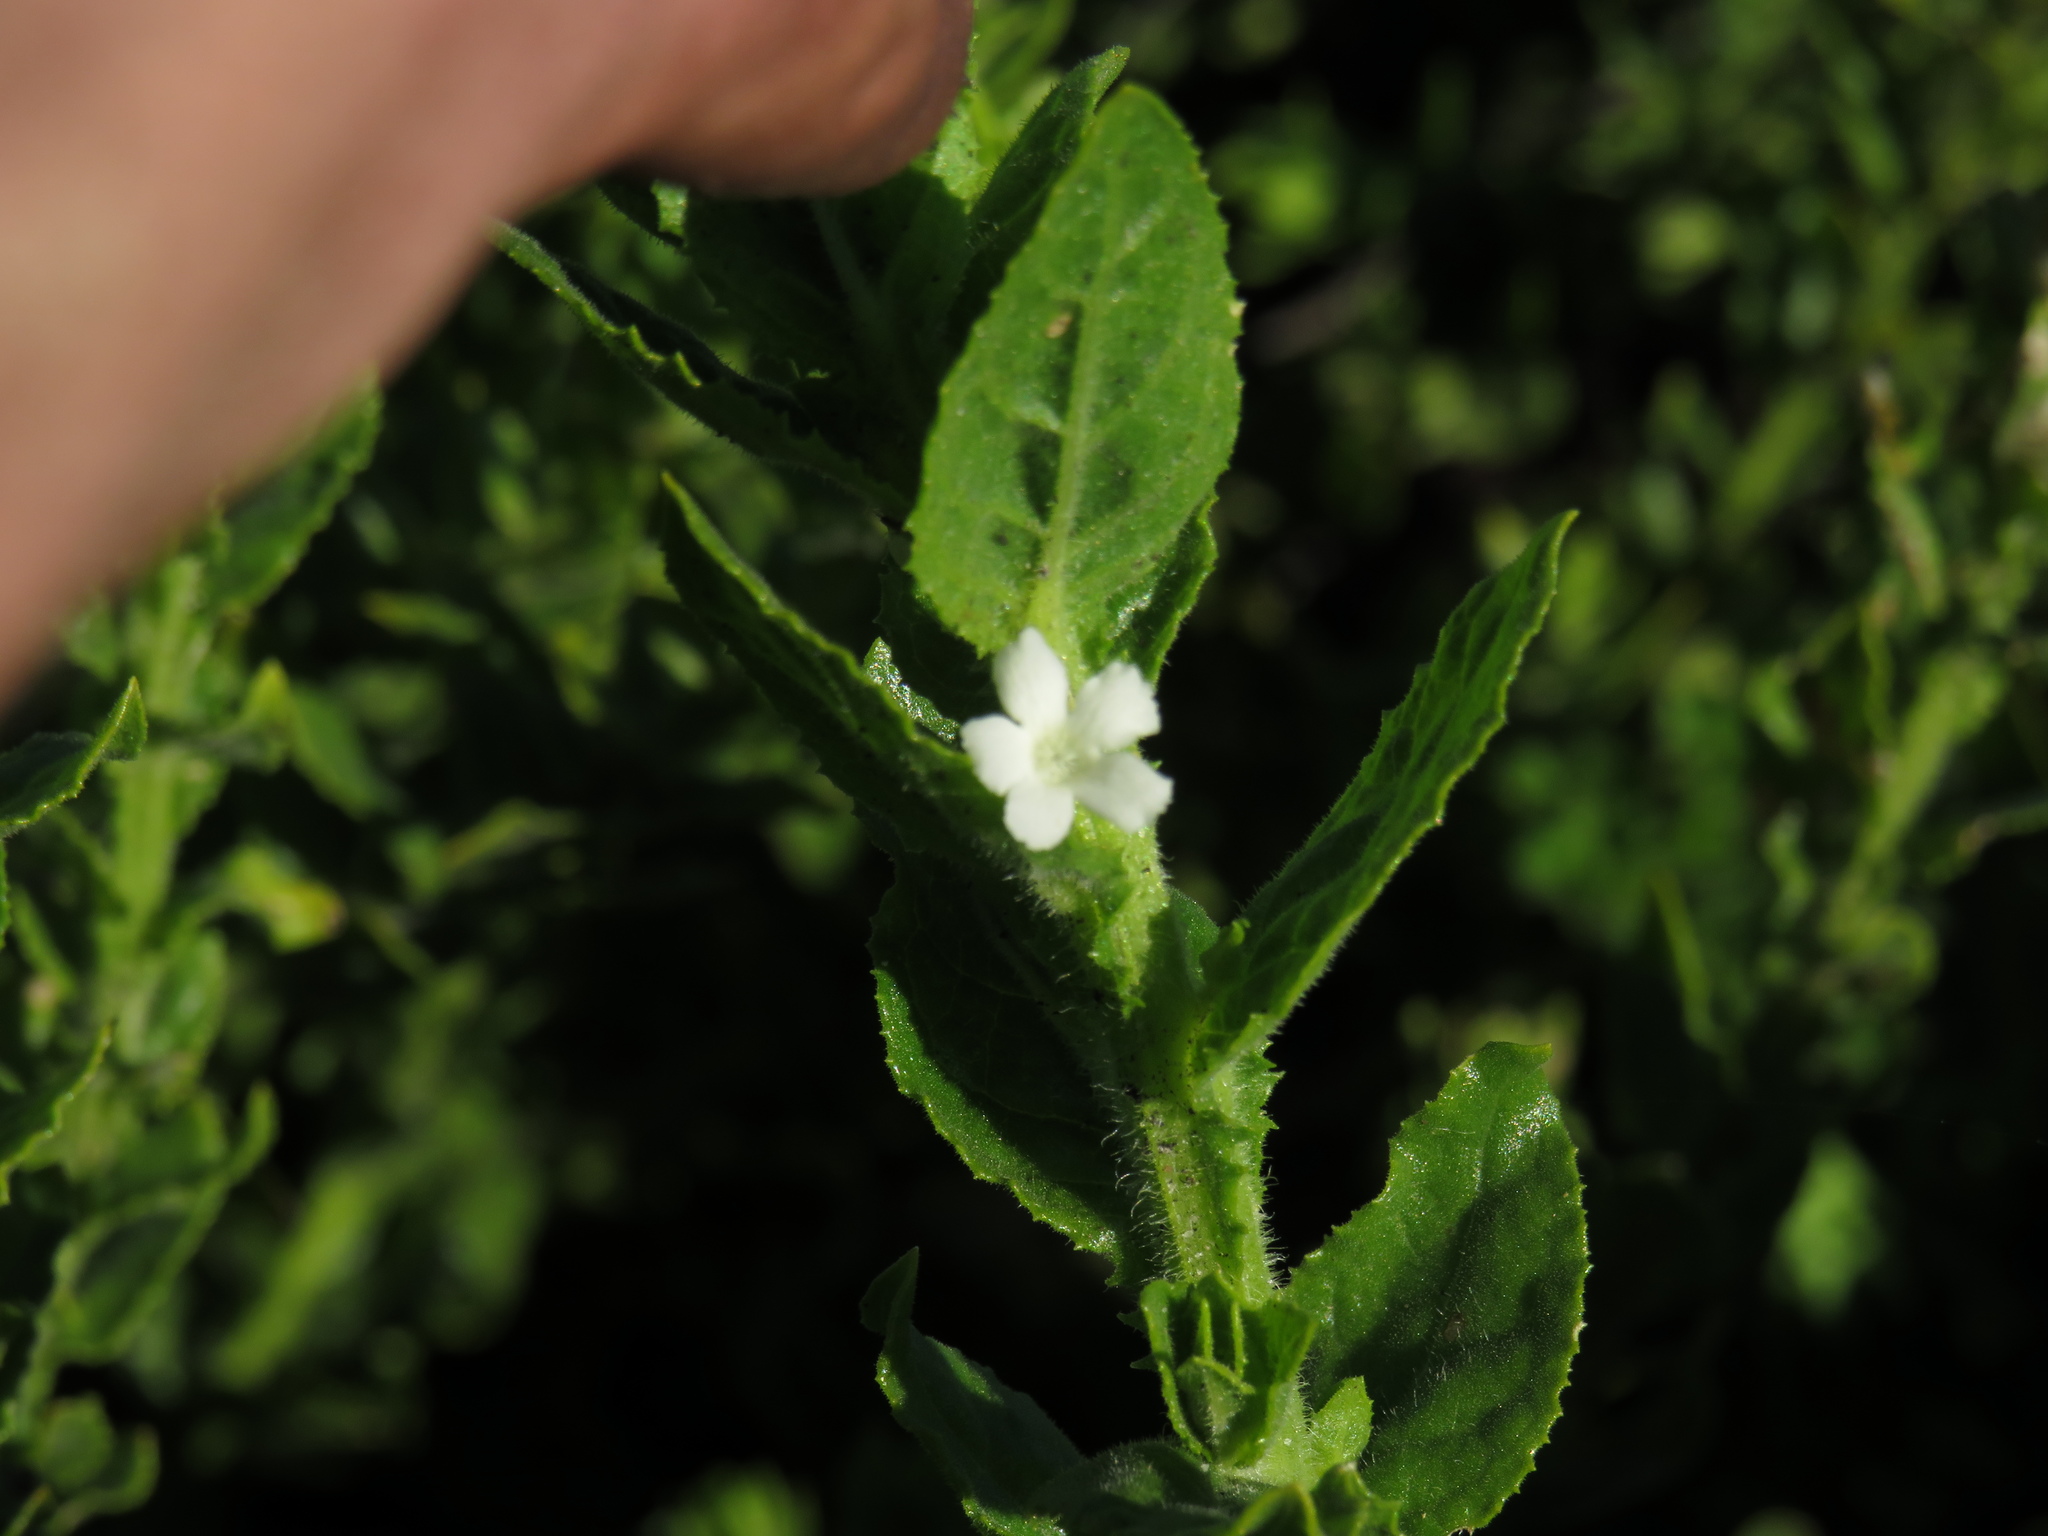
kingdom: Plantae
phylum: Tracheophyta
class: Magnoliopsida
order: Lamiales
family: Scrophulariaceae
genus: Oftia
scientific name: Oftia africana
